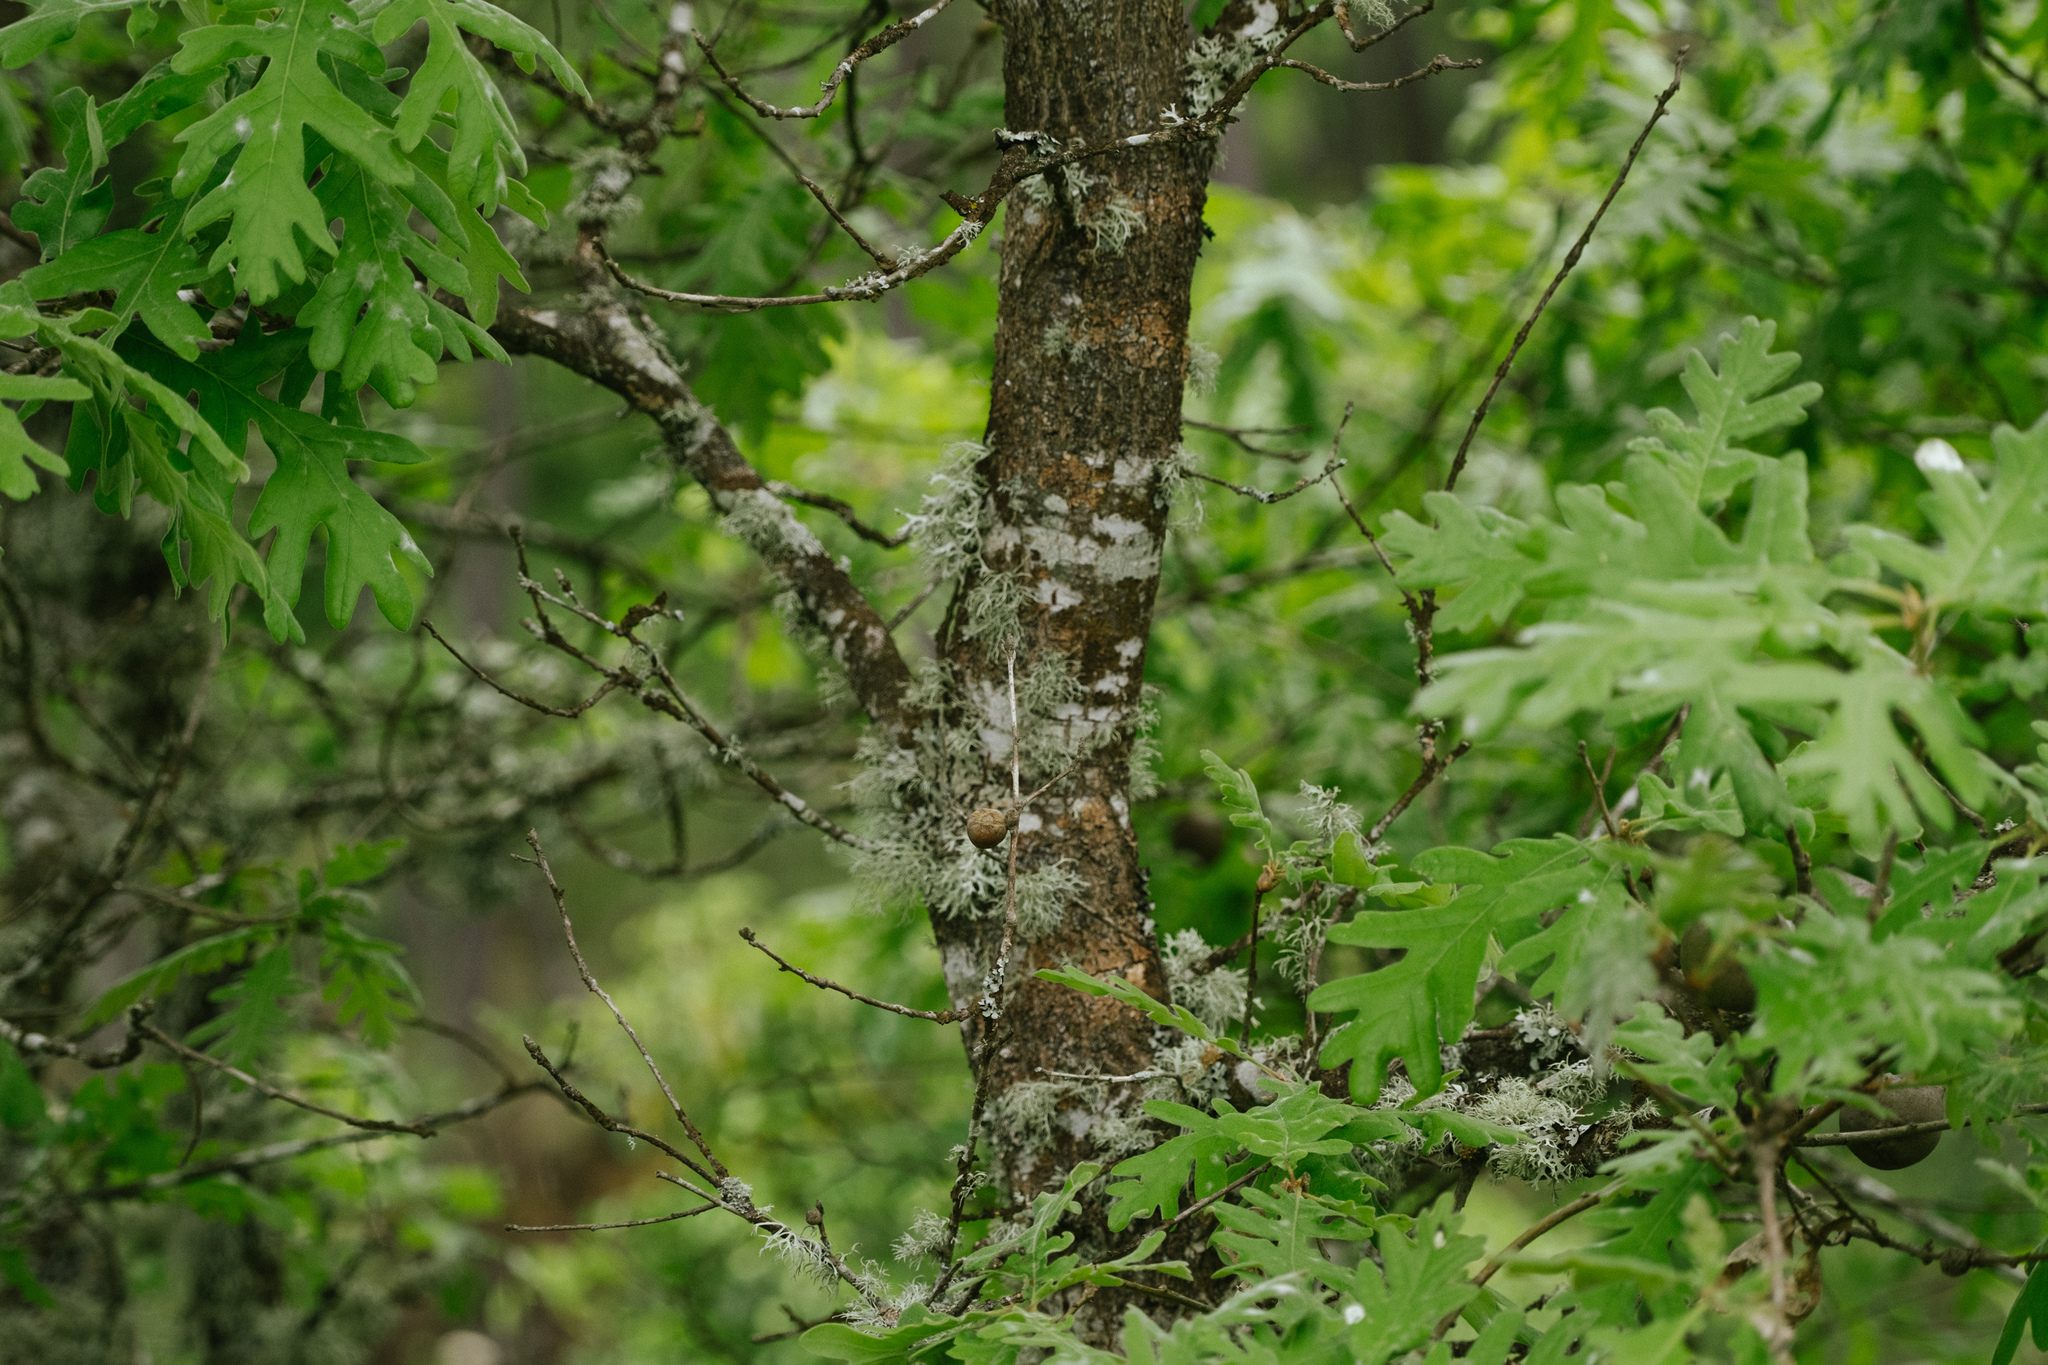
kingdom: Plantae
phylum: Tracheophyta
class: Magnoliopsida
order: Fagales
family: Fagaceae
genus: Quercus
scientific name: Quercus pyrenaica
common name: Pyrenean oak
